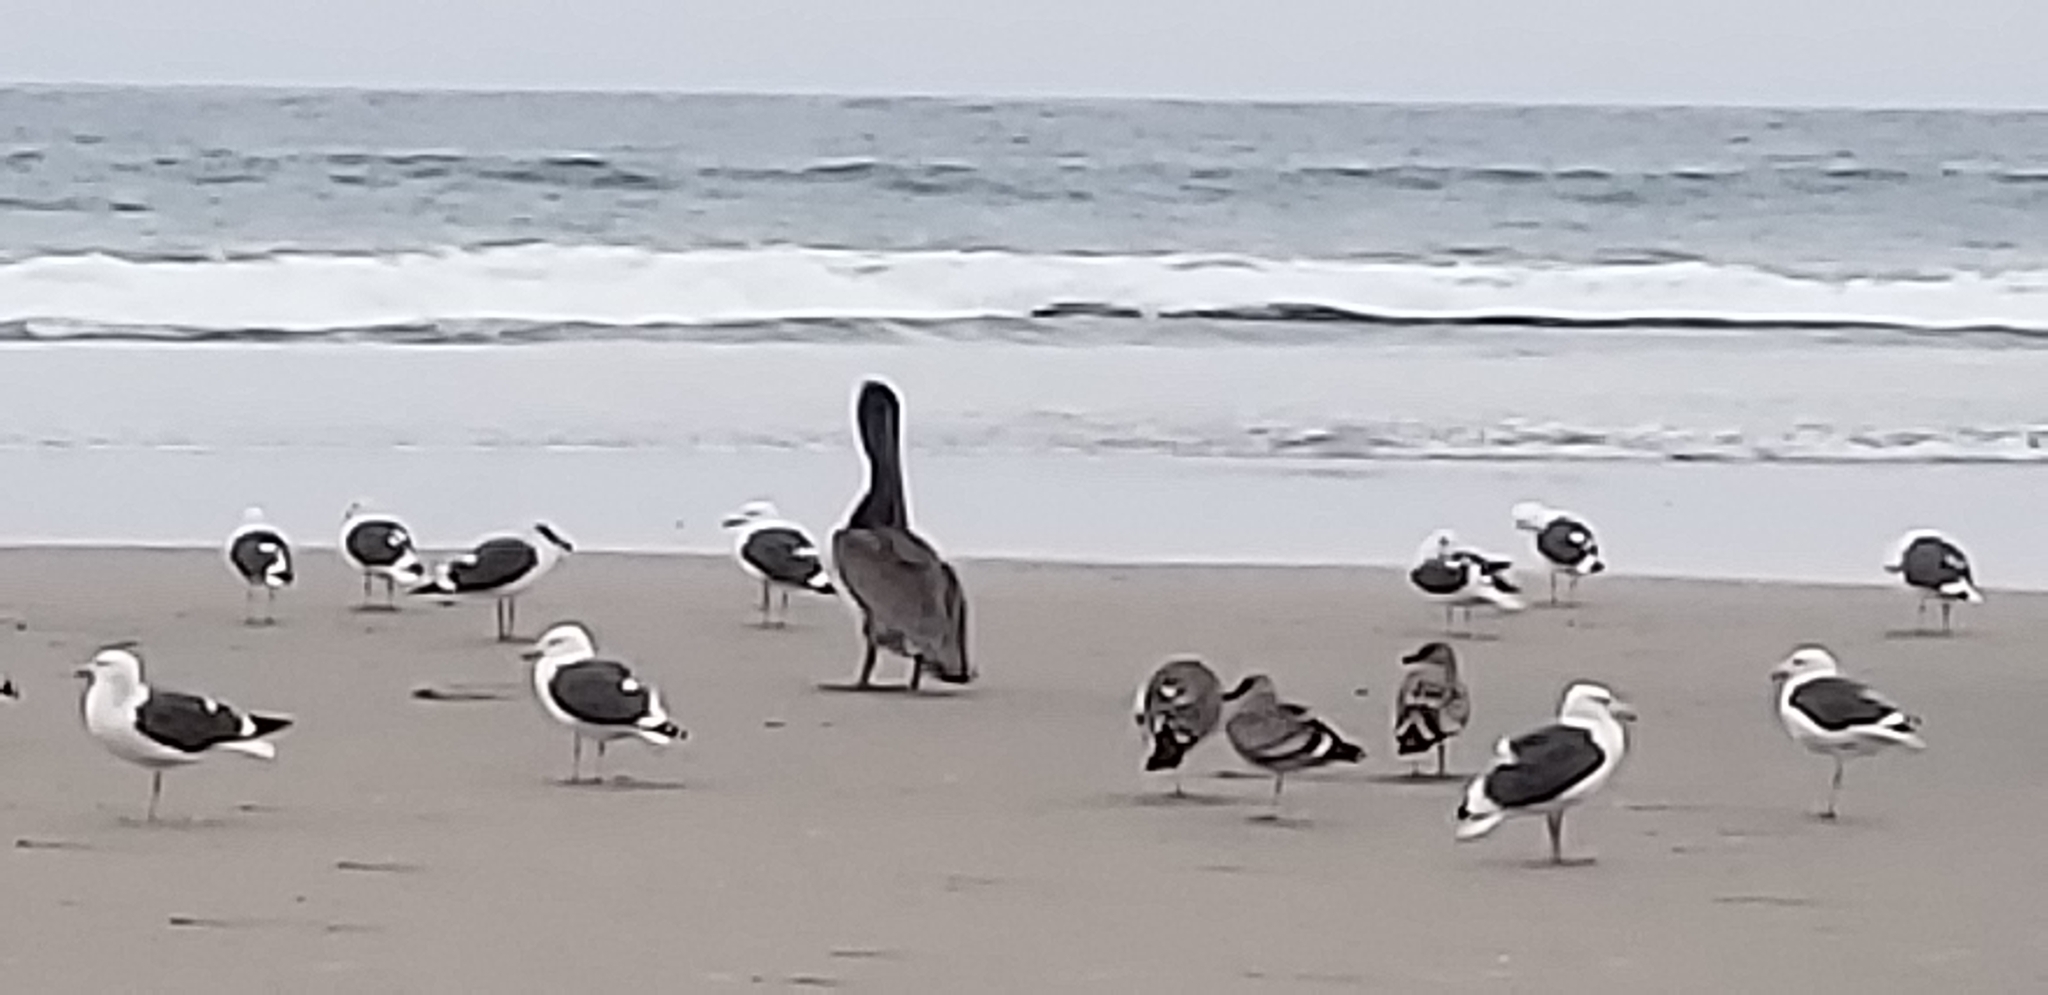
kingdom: Animalia
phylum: Chordata
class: Aves
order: Pelecaniformes
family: Pelecanidae
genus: Pelecanus
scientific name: Pelecanus occidentalis
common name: Brown pelican
